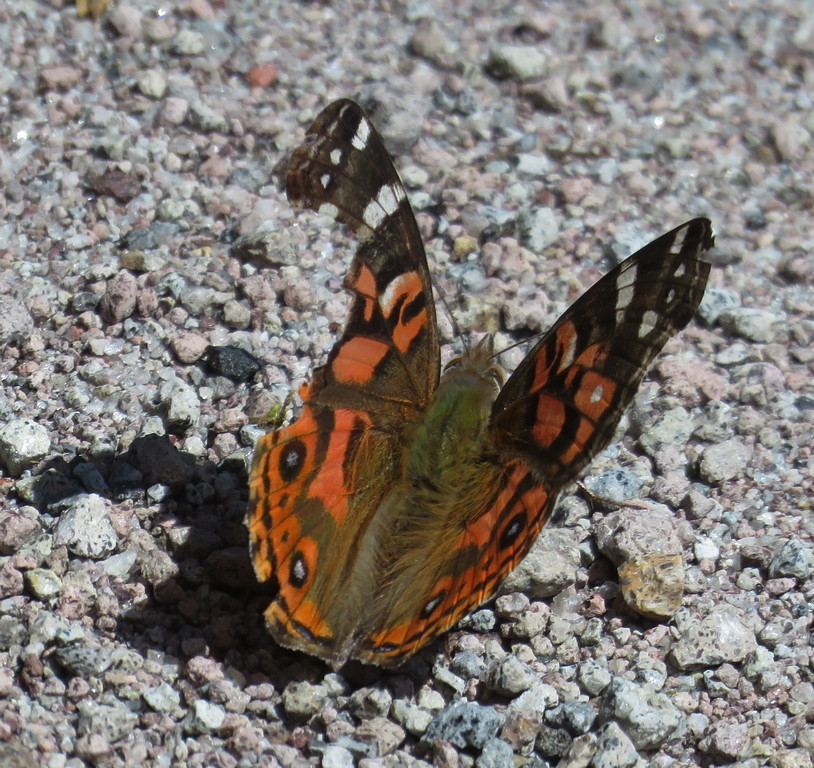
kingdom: Animalia
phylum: Arthropoda
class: Insecta
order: Lepidoptera
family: Nymphalidae
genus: Vanessa
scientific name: Vanessa braziliensis
